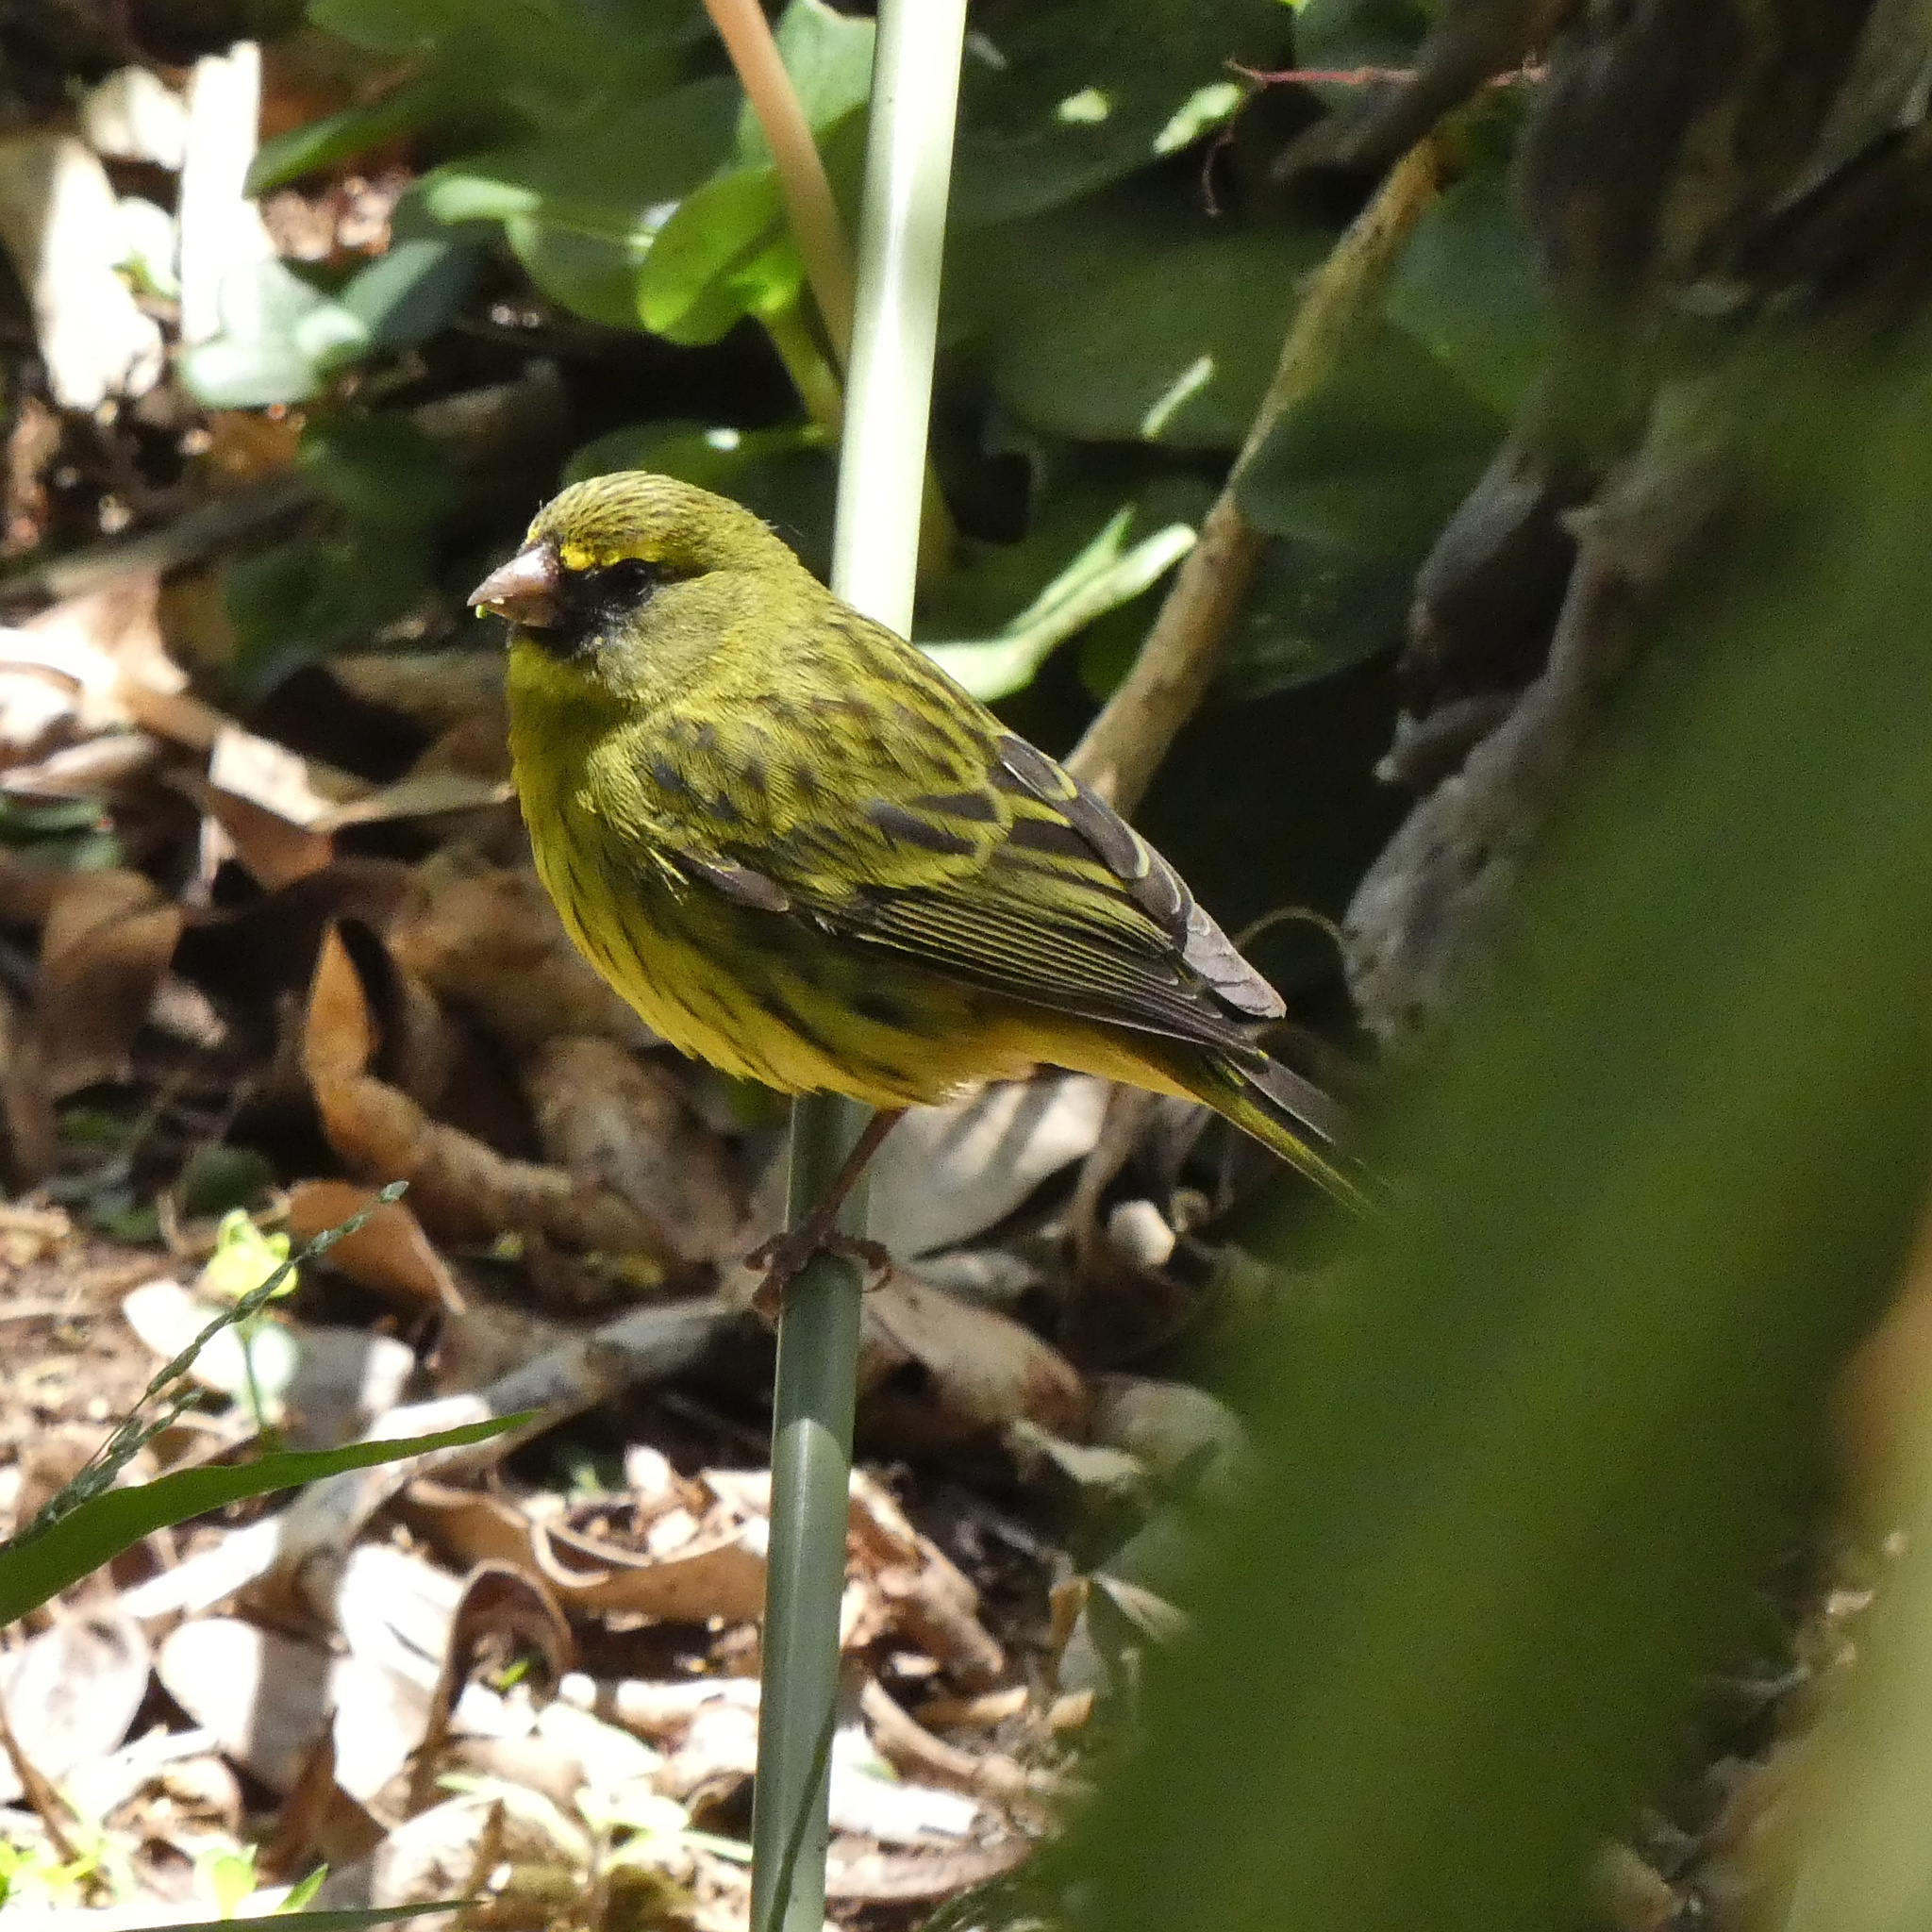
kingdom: Animalia
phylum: Chordata
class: Aves
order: Passeriformes
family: Fringillidae
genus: Crithagra
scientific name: Crithagra scotops
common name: Forest canary
